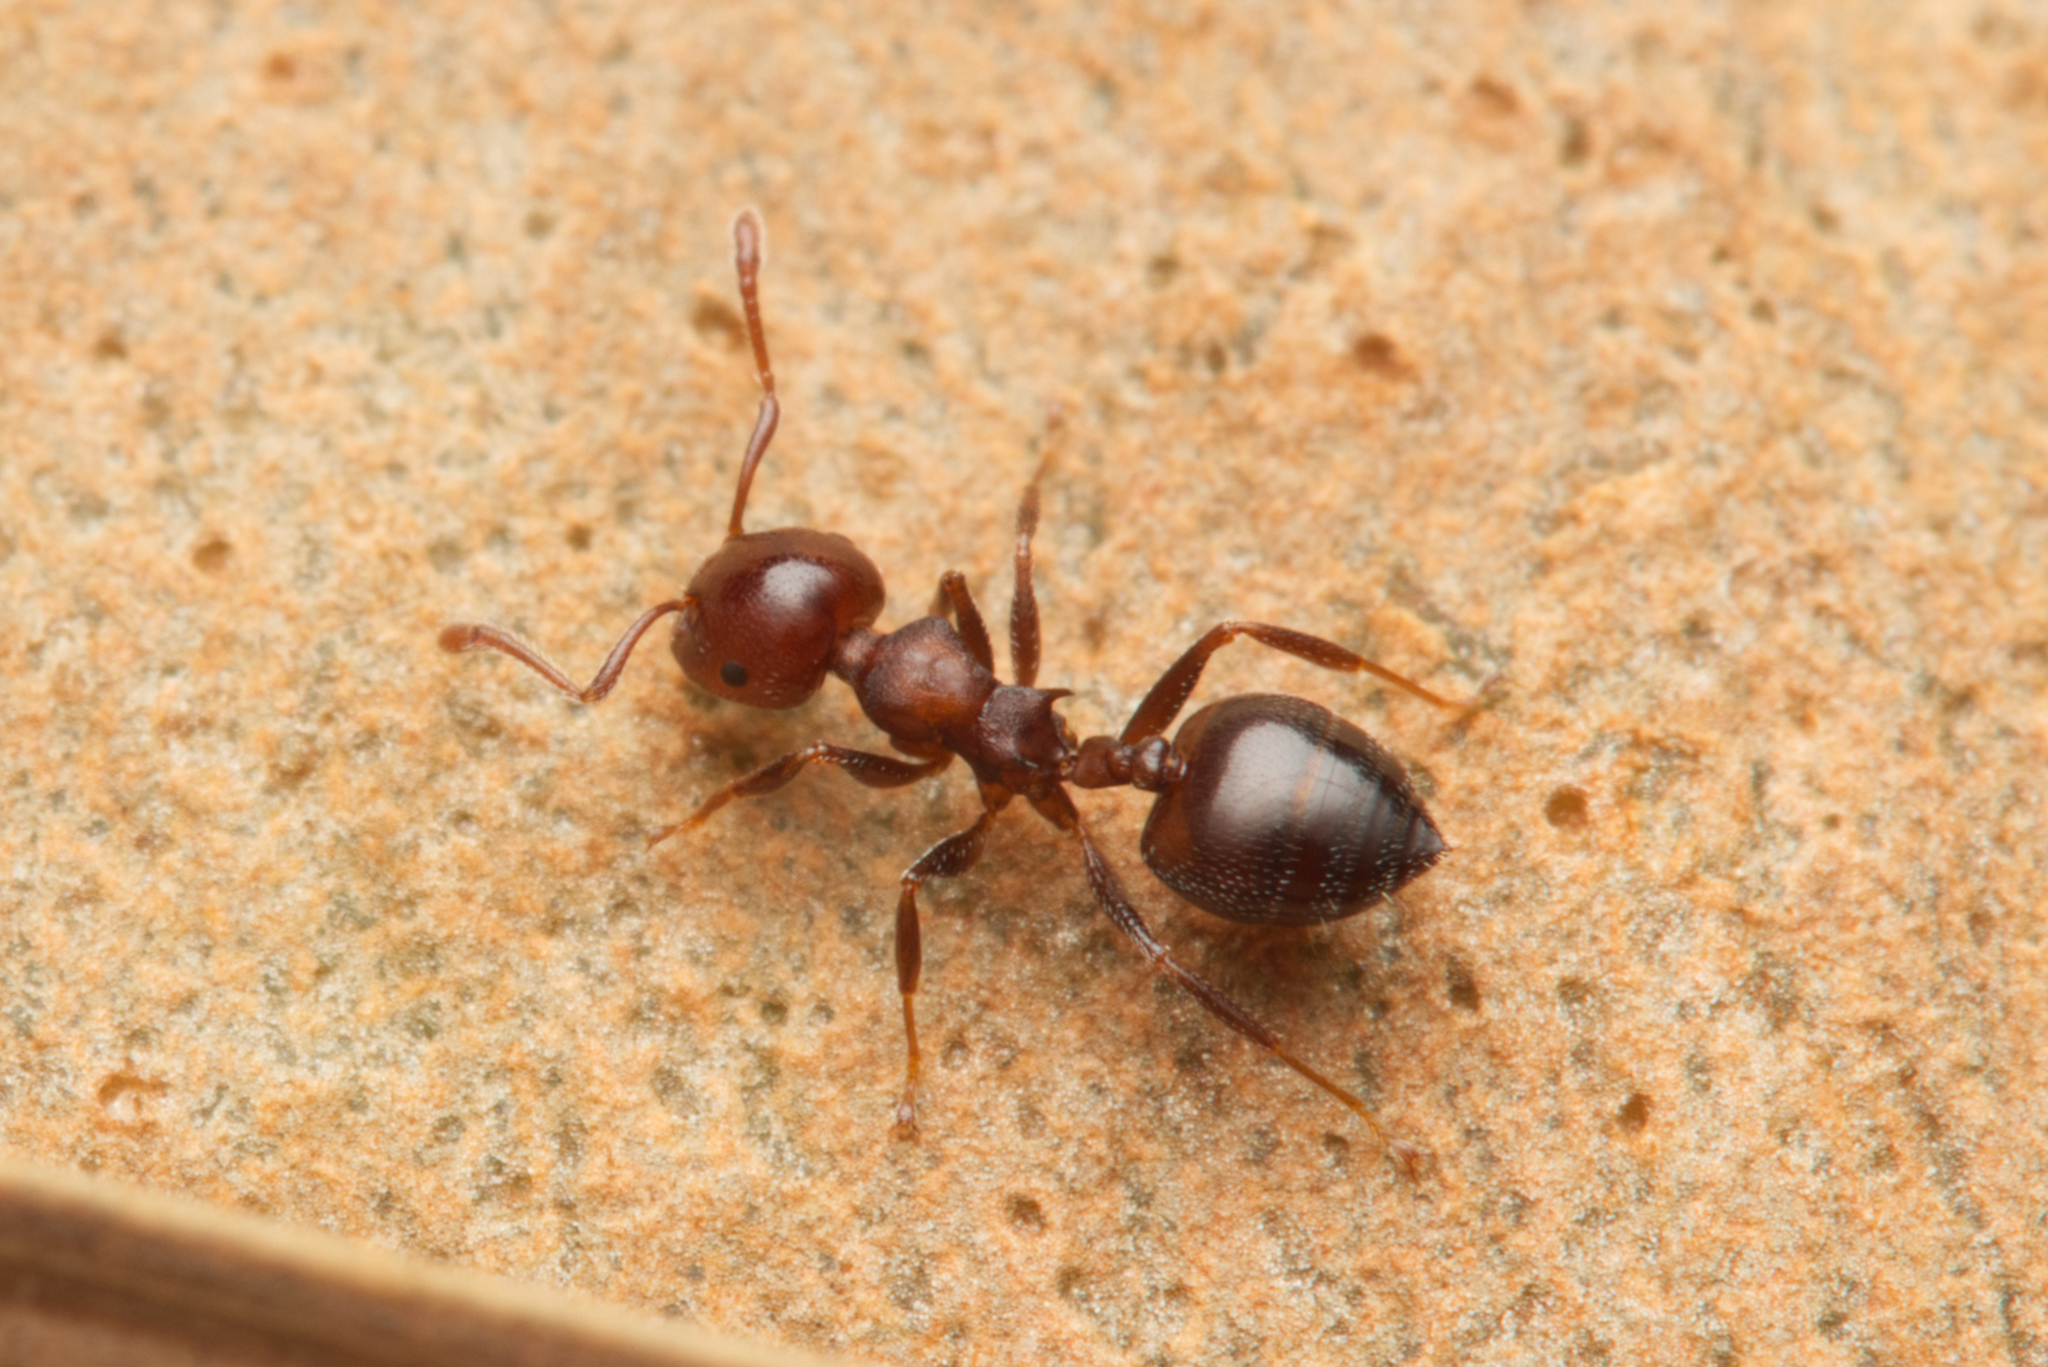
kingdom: Animalia
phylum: Arthropoda
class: Insecta
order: Hymenoptera
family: Formicidae
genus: Crematogaster
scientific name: Crematogaster cornigera
